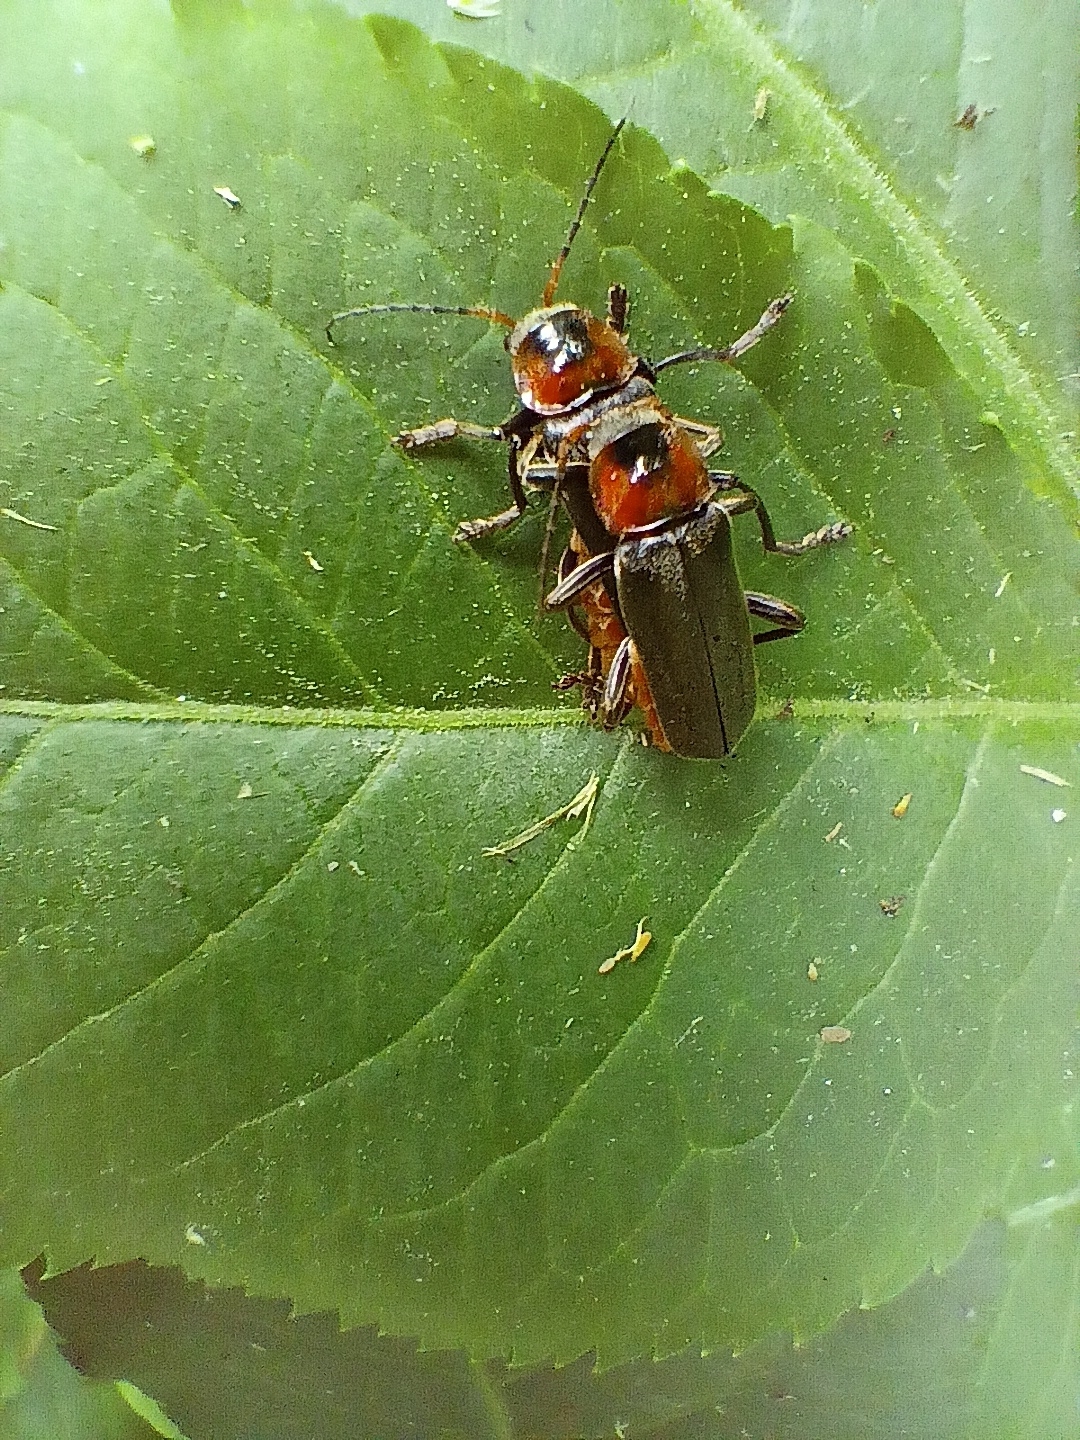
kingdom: Animalia
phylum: Arthropoda
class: Insecta
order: Coleoptera
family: Cantharidae
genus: Cantharis
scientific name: Cantharis fusca
